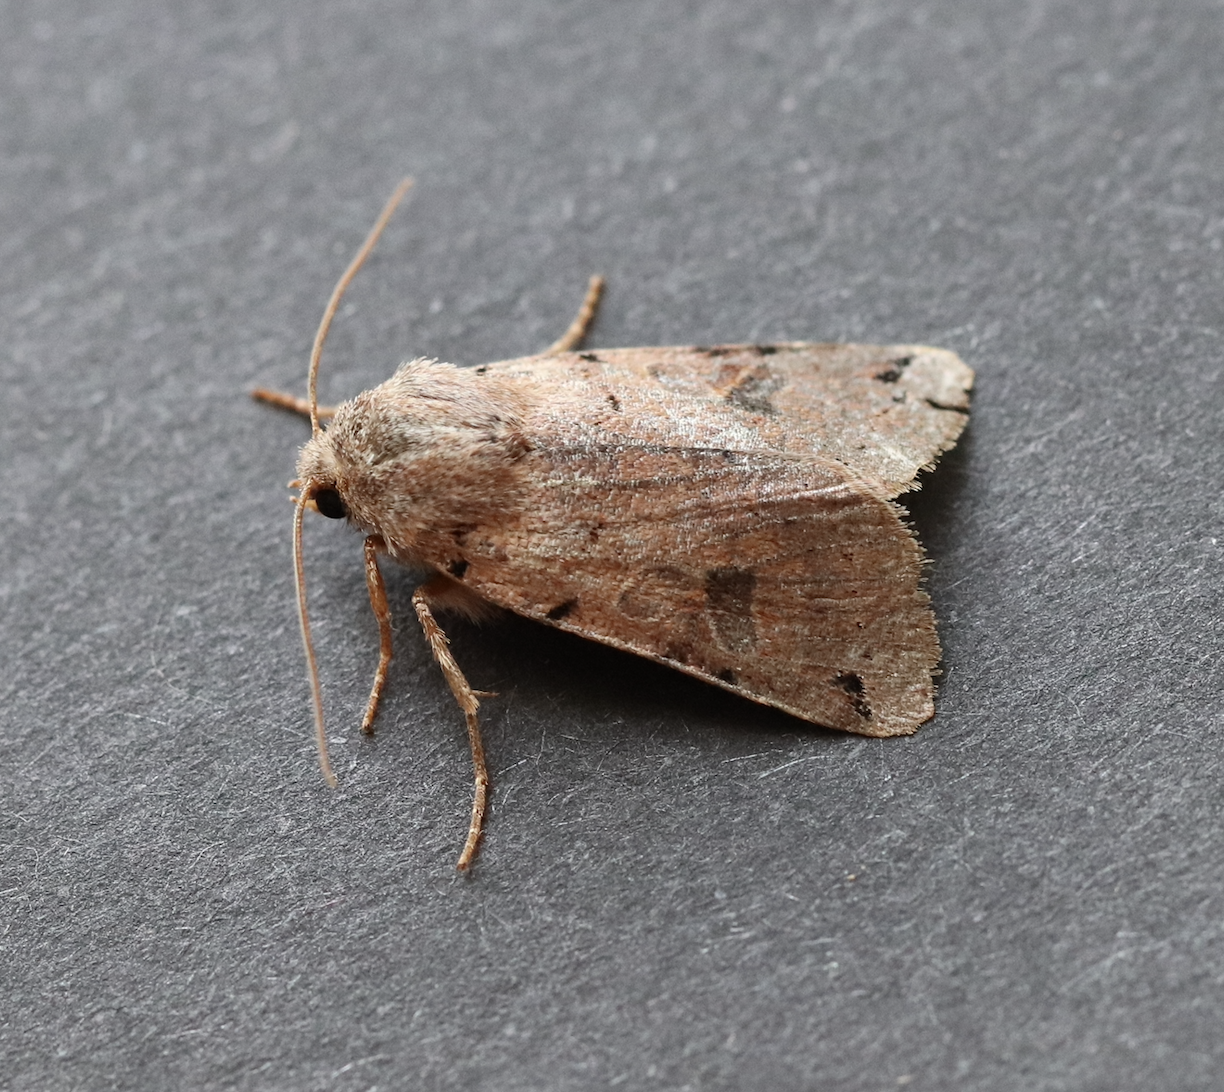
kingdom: Animalia
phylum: Arthropoda
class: Insecta
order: Lepidoptera
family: Noctuidae
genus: Agrochola
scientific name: Agrochola litura
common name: Brown-spot pinion
